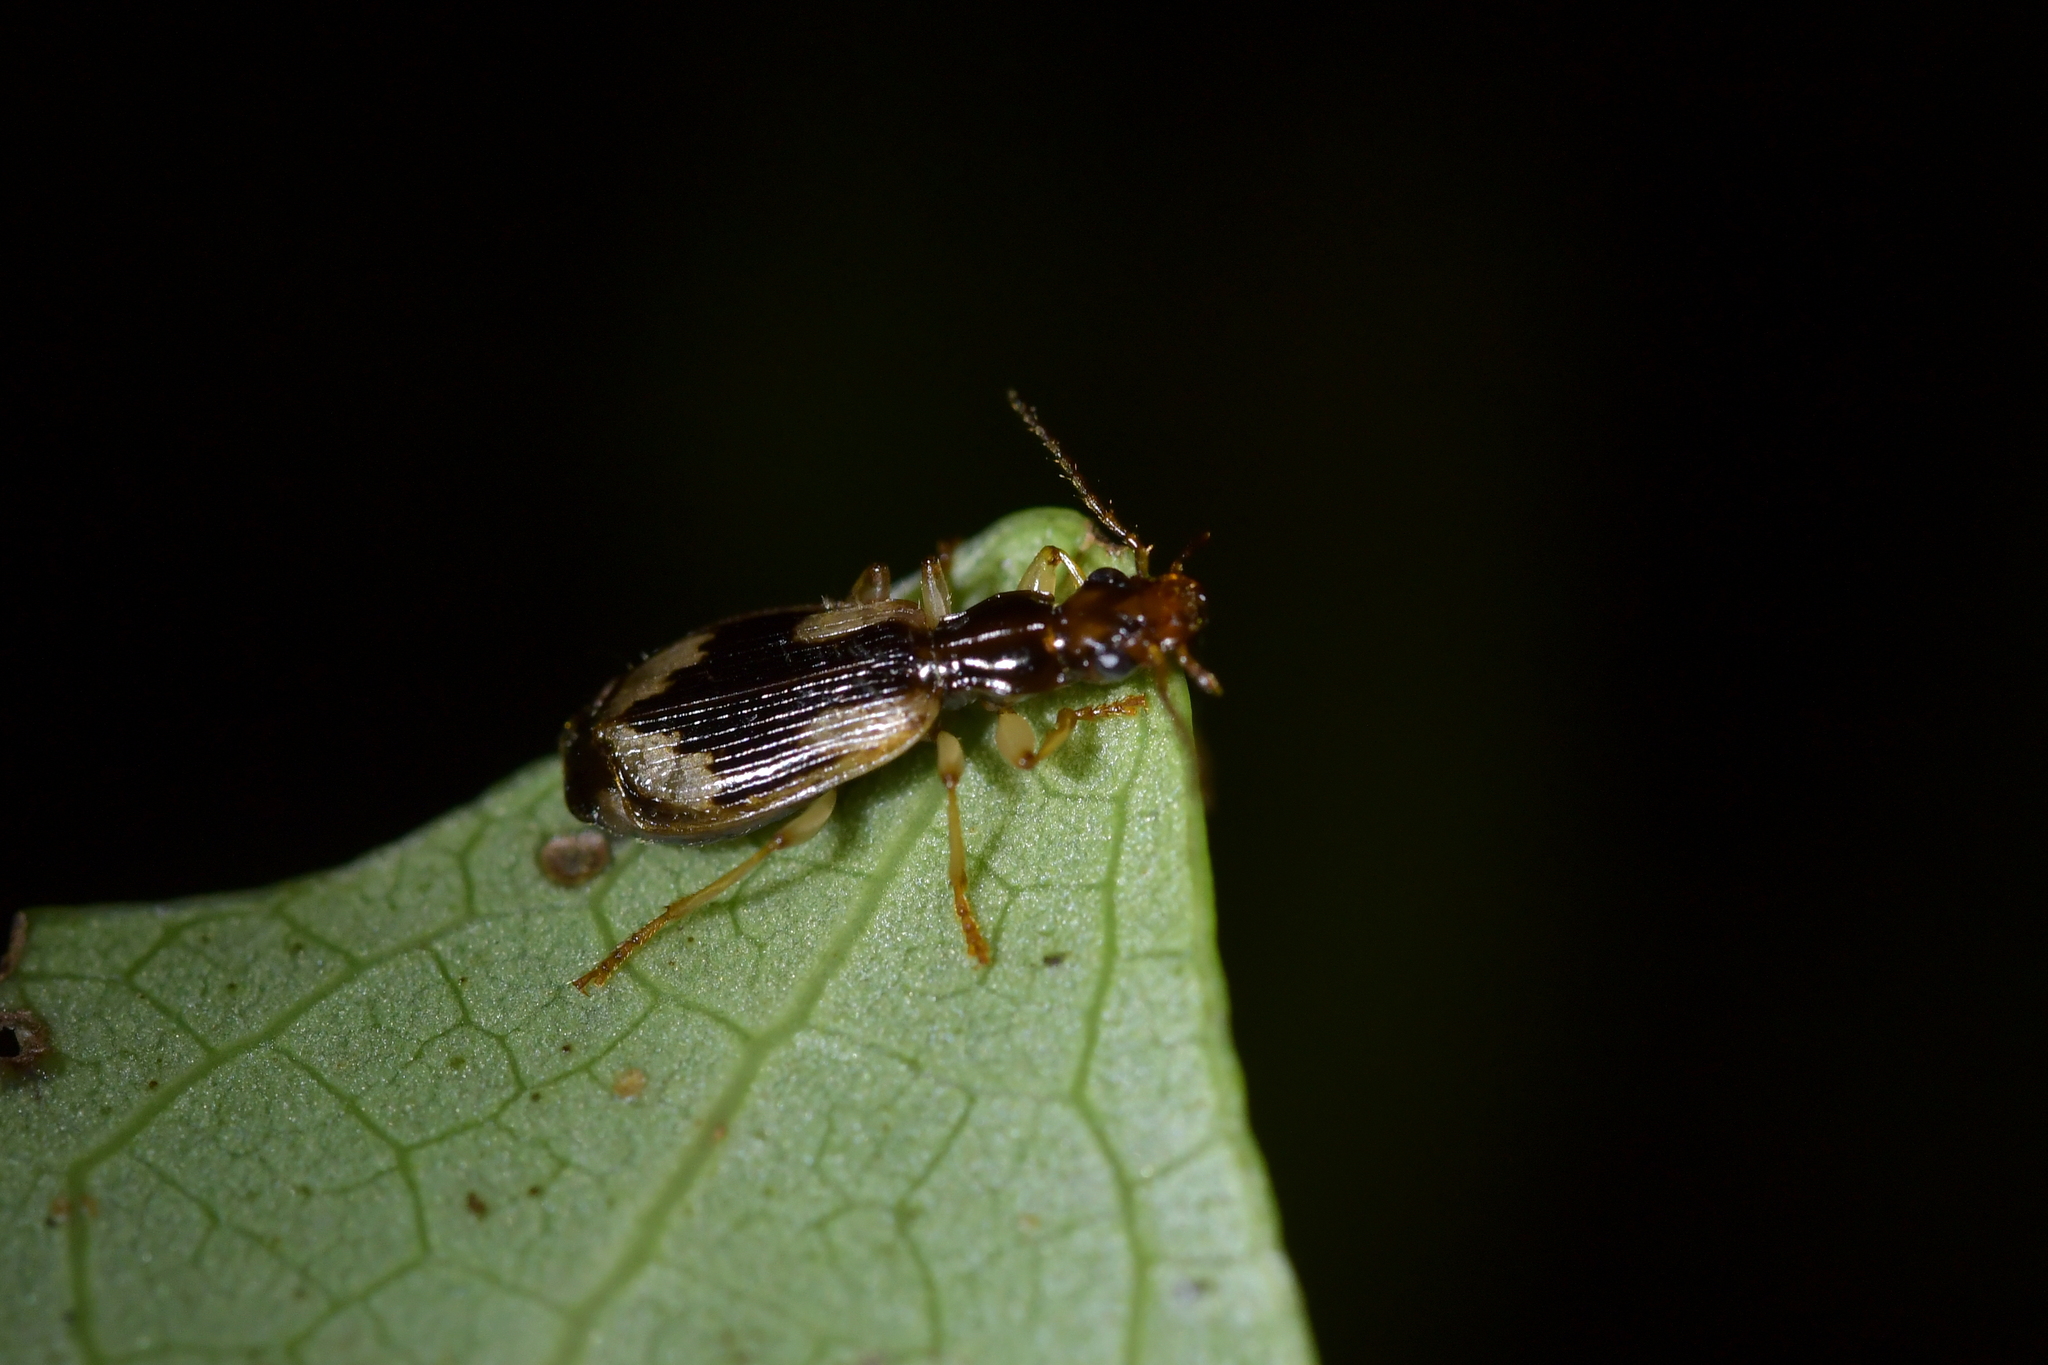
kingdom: Animalia
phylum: Arthropoda
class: Insecta
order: Coleoptera
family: Carabidae
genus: Demetrida
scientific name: Demetrida nasuta
